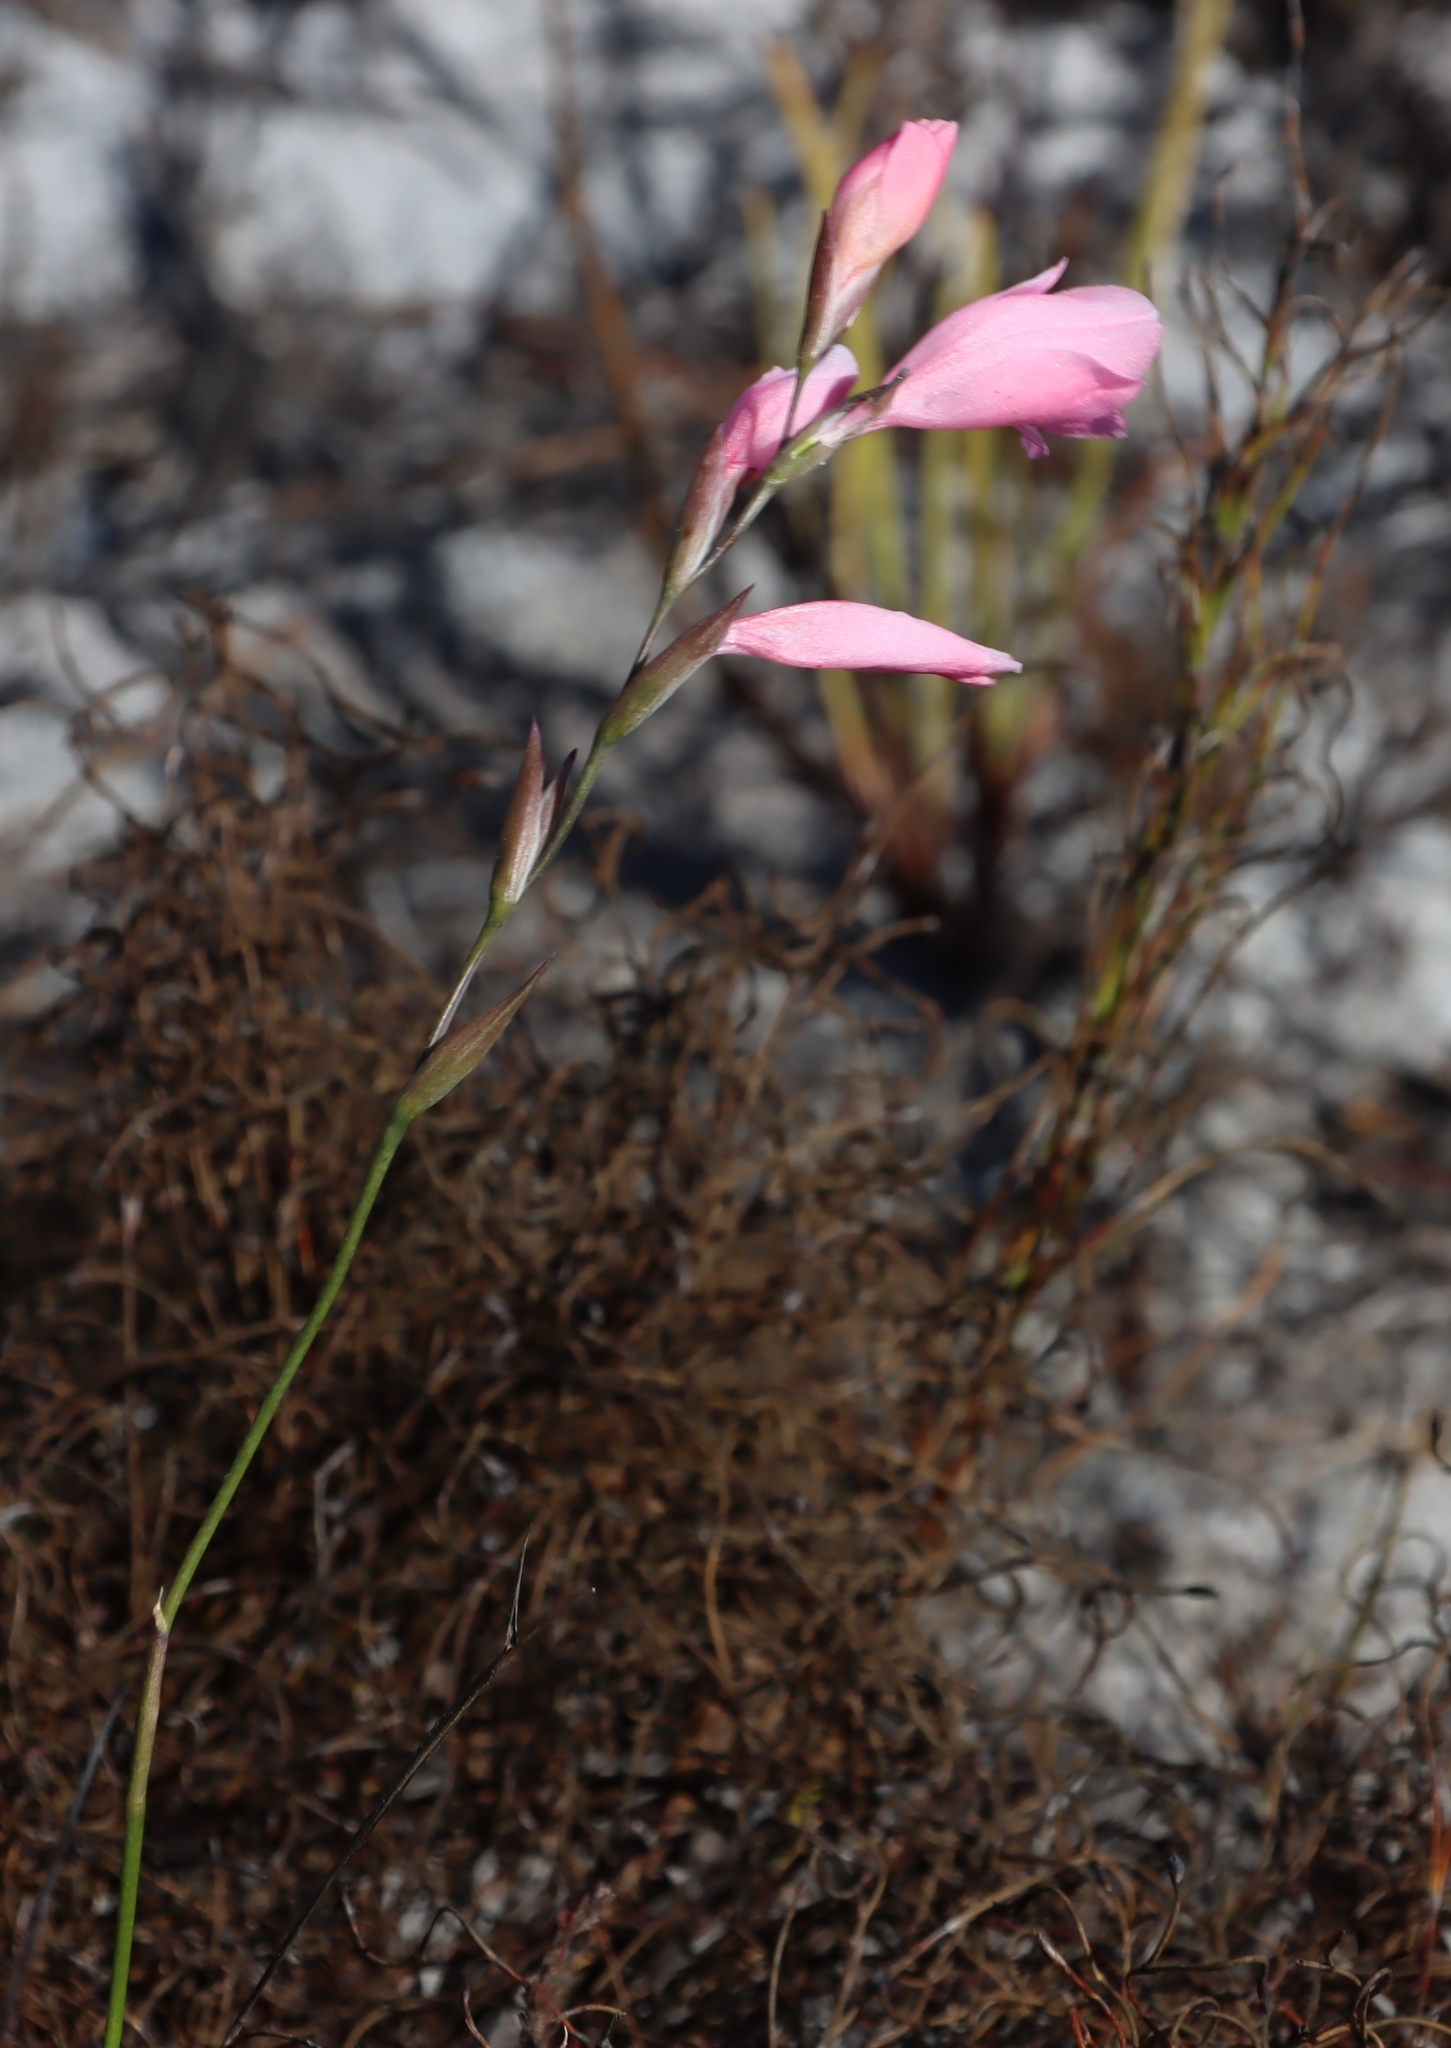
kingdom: Plantae
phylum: Tracheophyta
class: Liliopsida
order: Asparagales
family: Iridaceae
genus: Gladiolus
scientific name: Gladiolus brevifolius
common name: March pypie
